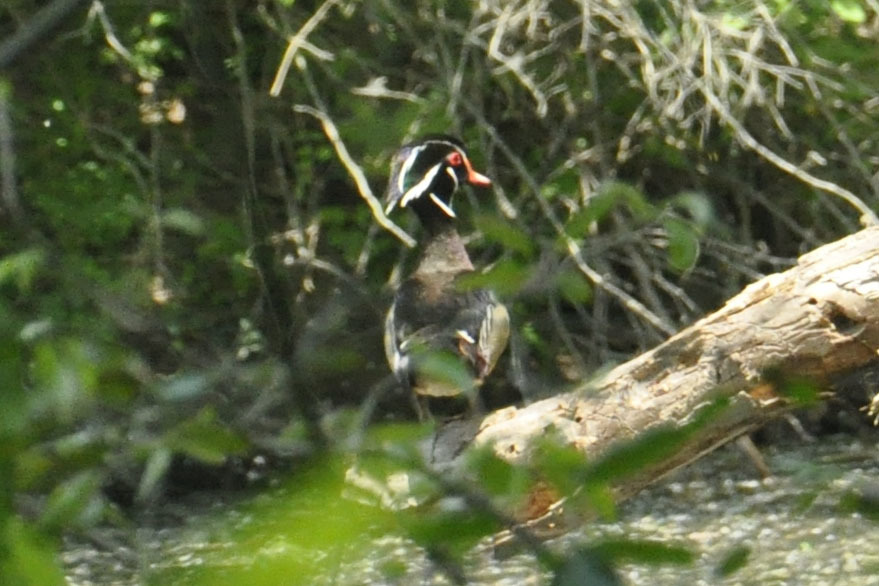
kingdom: Animalia
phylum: Chordata
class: Aves
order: Anseriformes
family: Anatidae
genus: Aix
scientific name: Aix sponsa
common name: Wood duck
